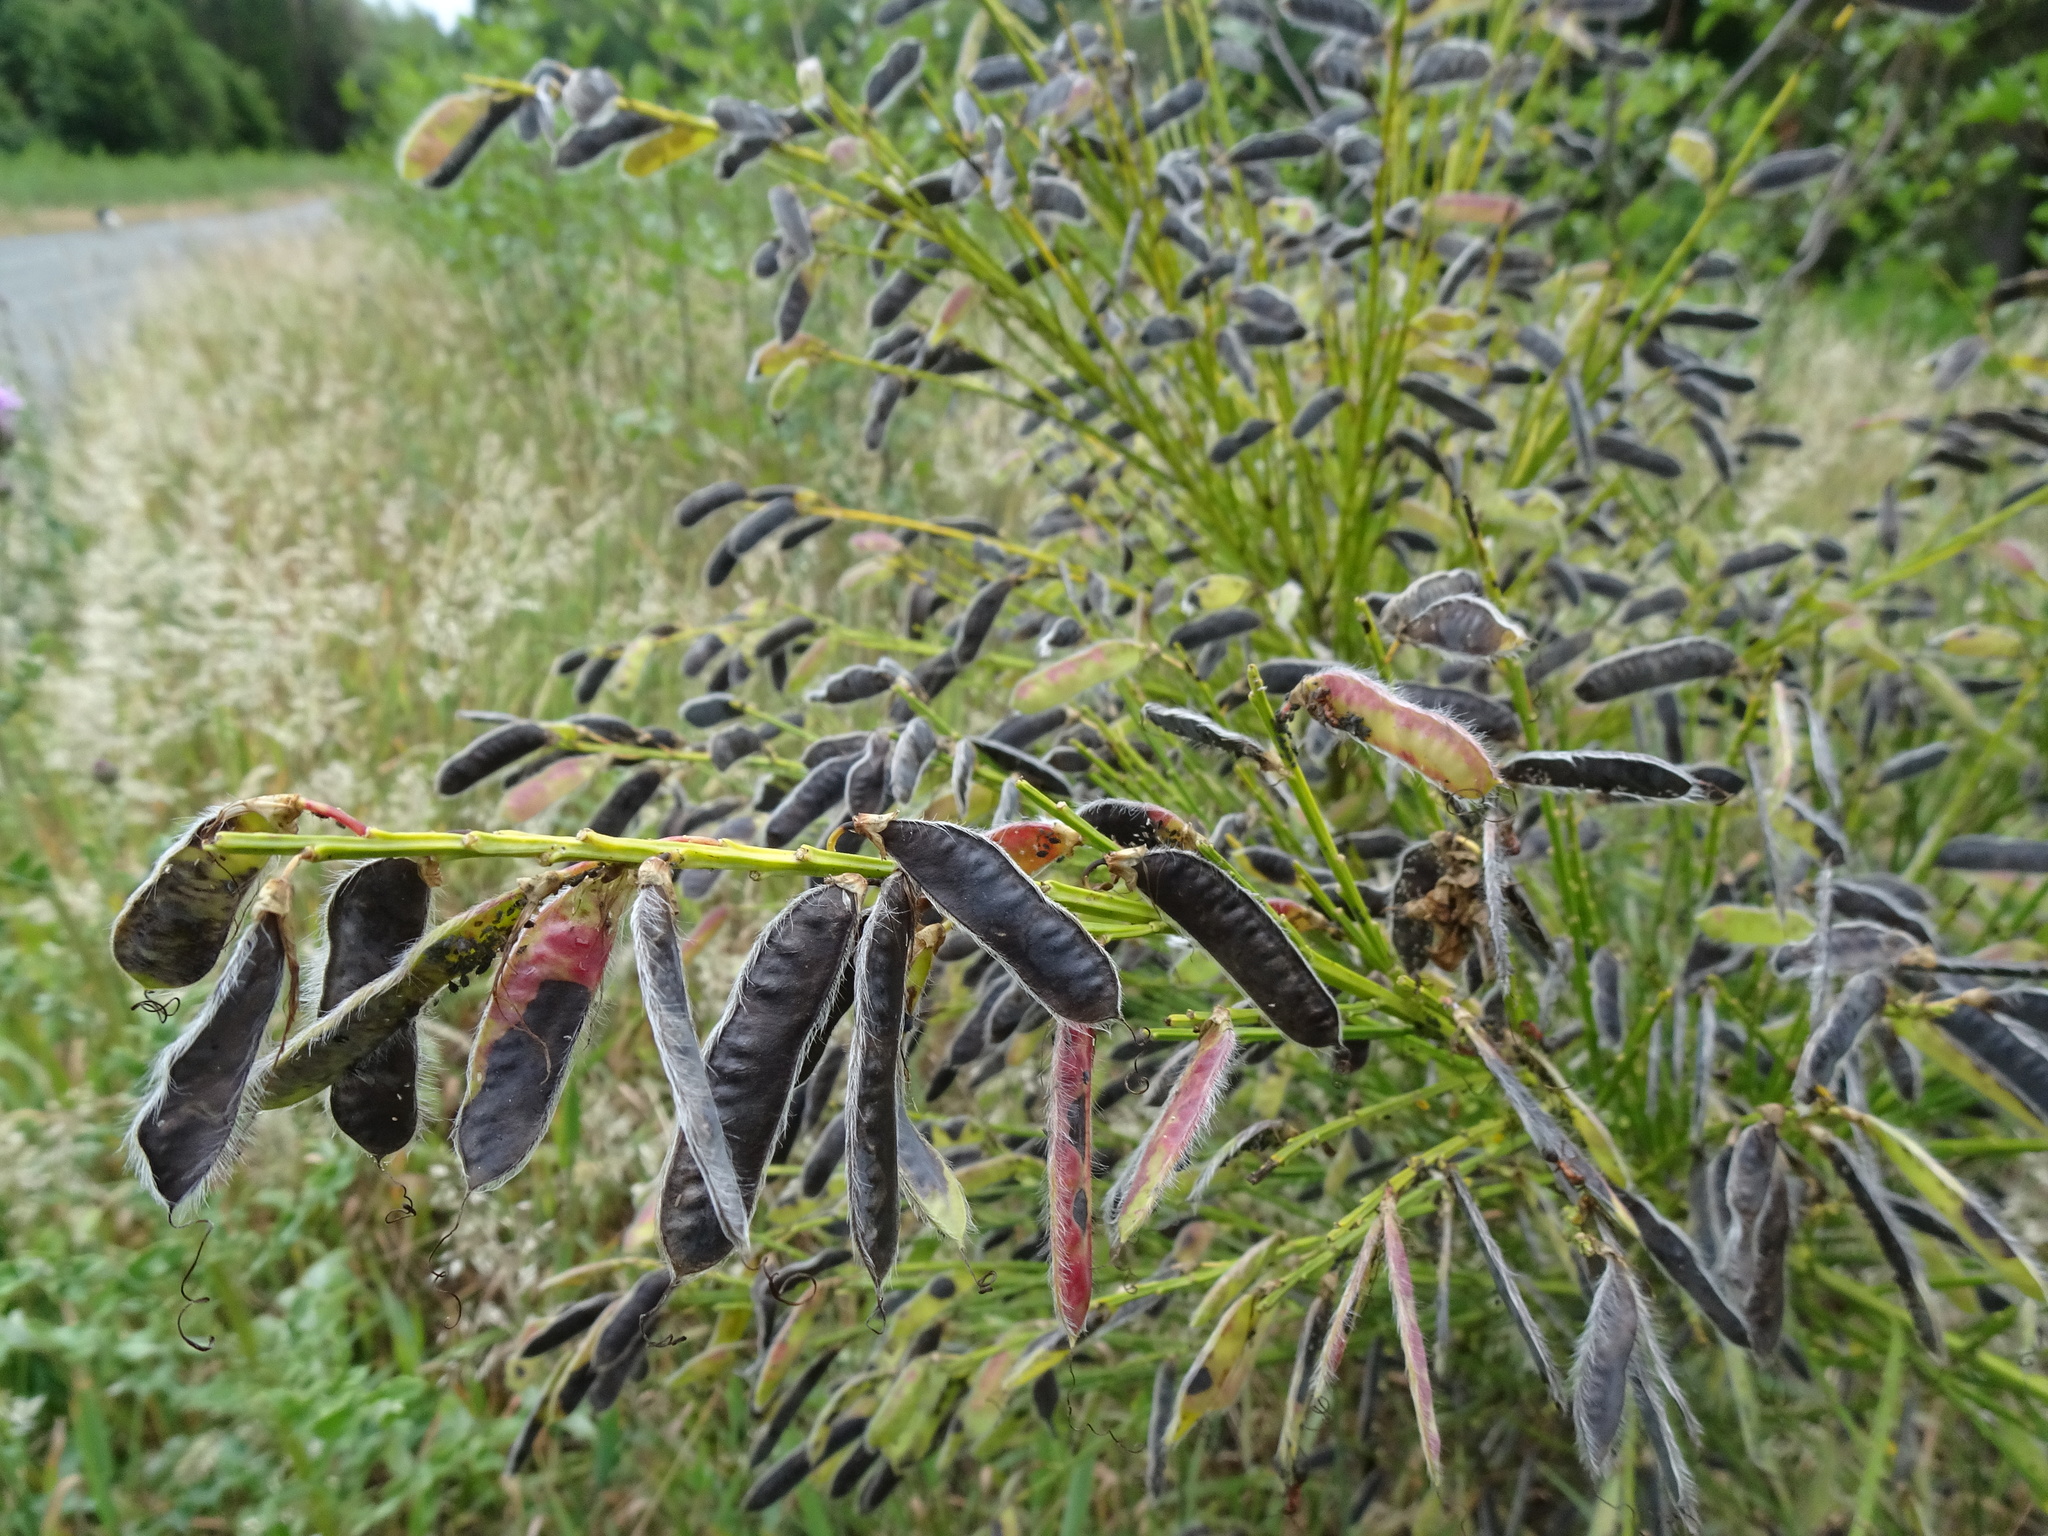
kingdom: Plantae
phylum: Tracheophyta
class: Magnoliopsida
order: Fabales
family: Fabaceae
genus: Cytisus
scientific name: Cytisus scoparius
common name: Scotch broom
